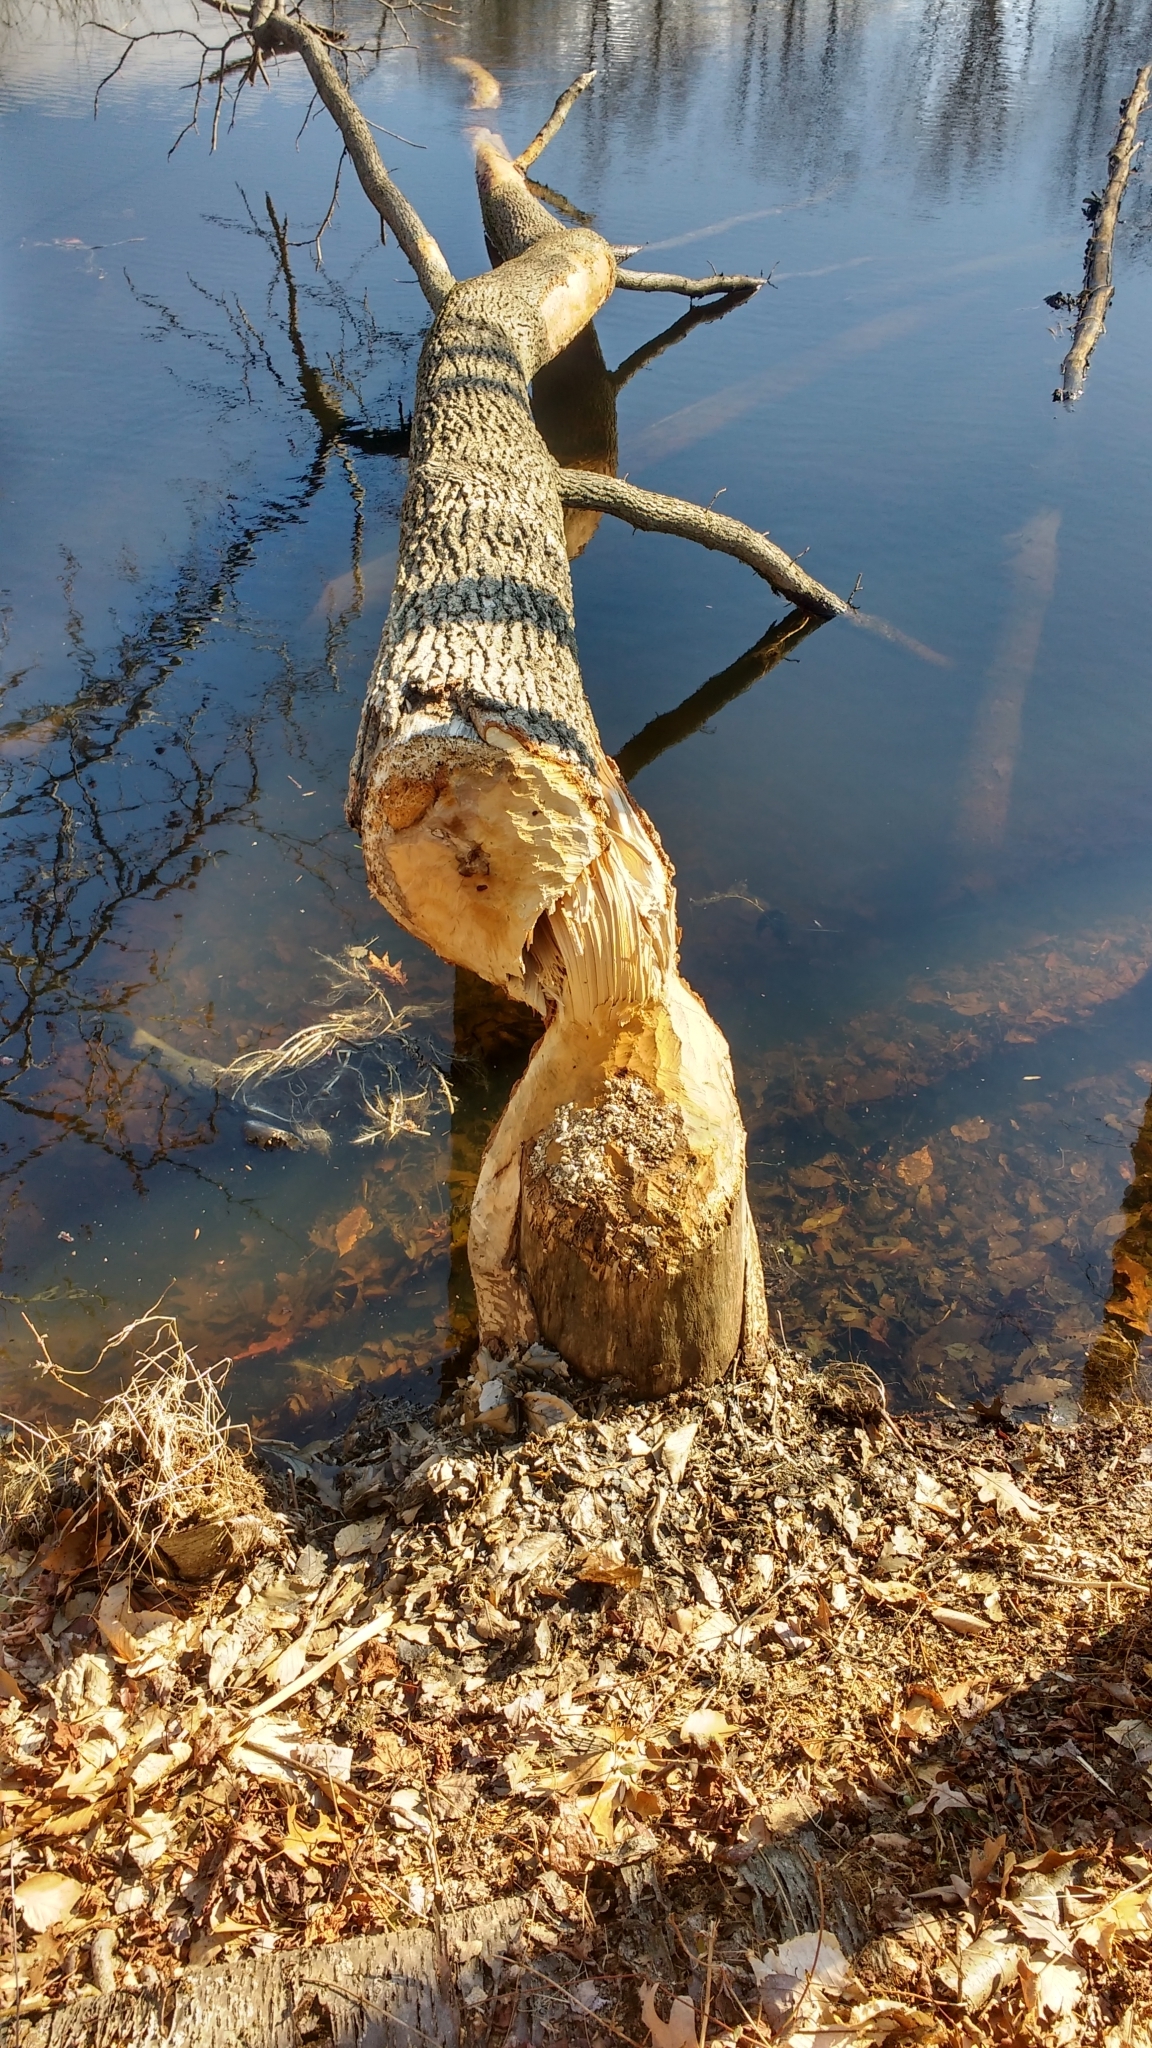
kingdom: Animalia
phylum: Chordata
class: Mammalia
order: Rodentia
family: Castoridae
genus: Castor
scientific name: Castor canadensis
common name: American beaver
